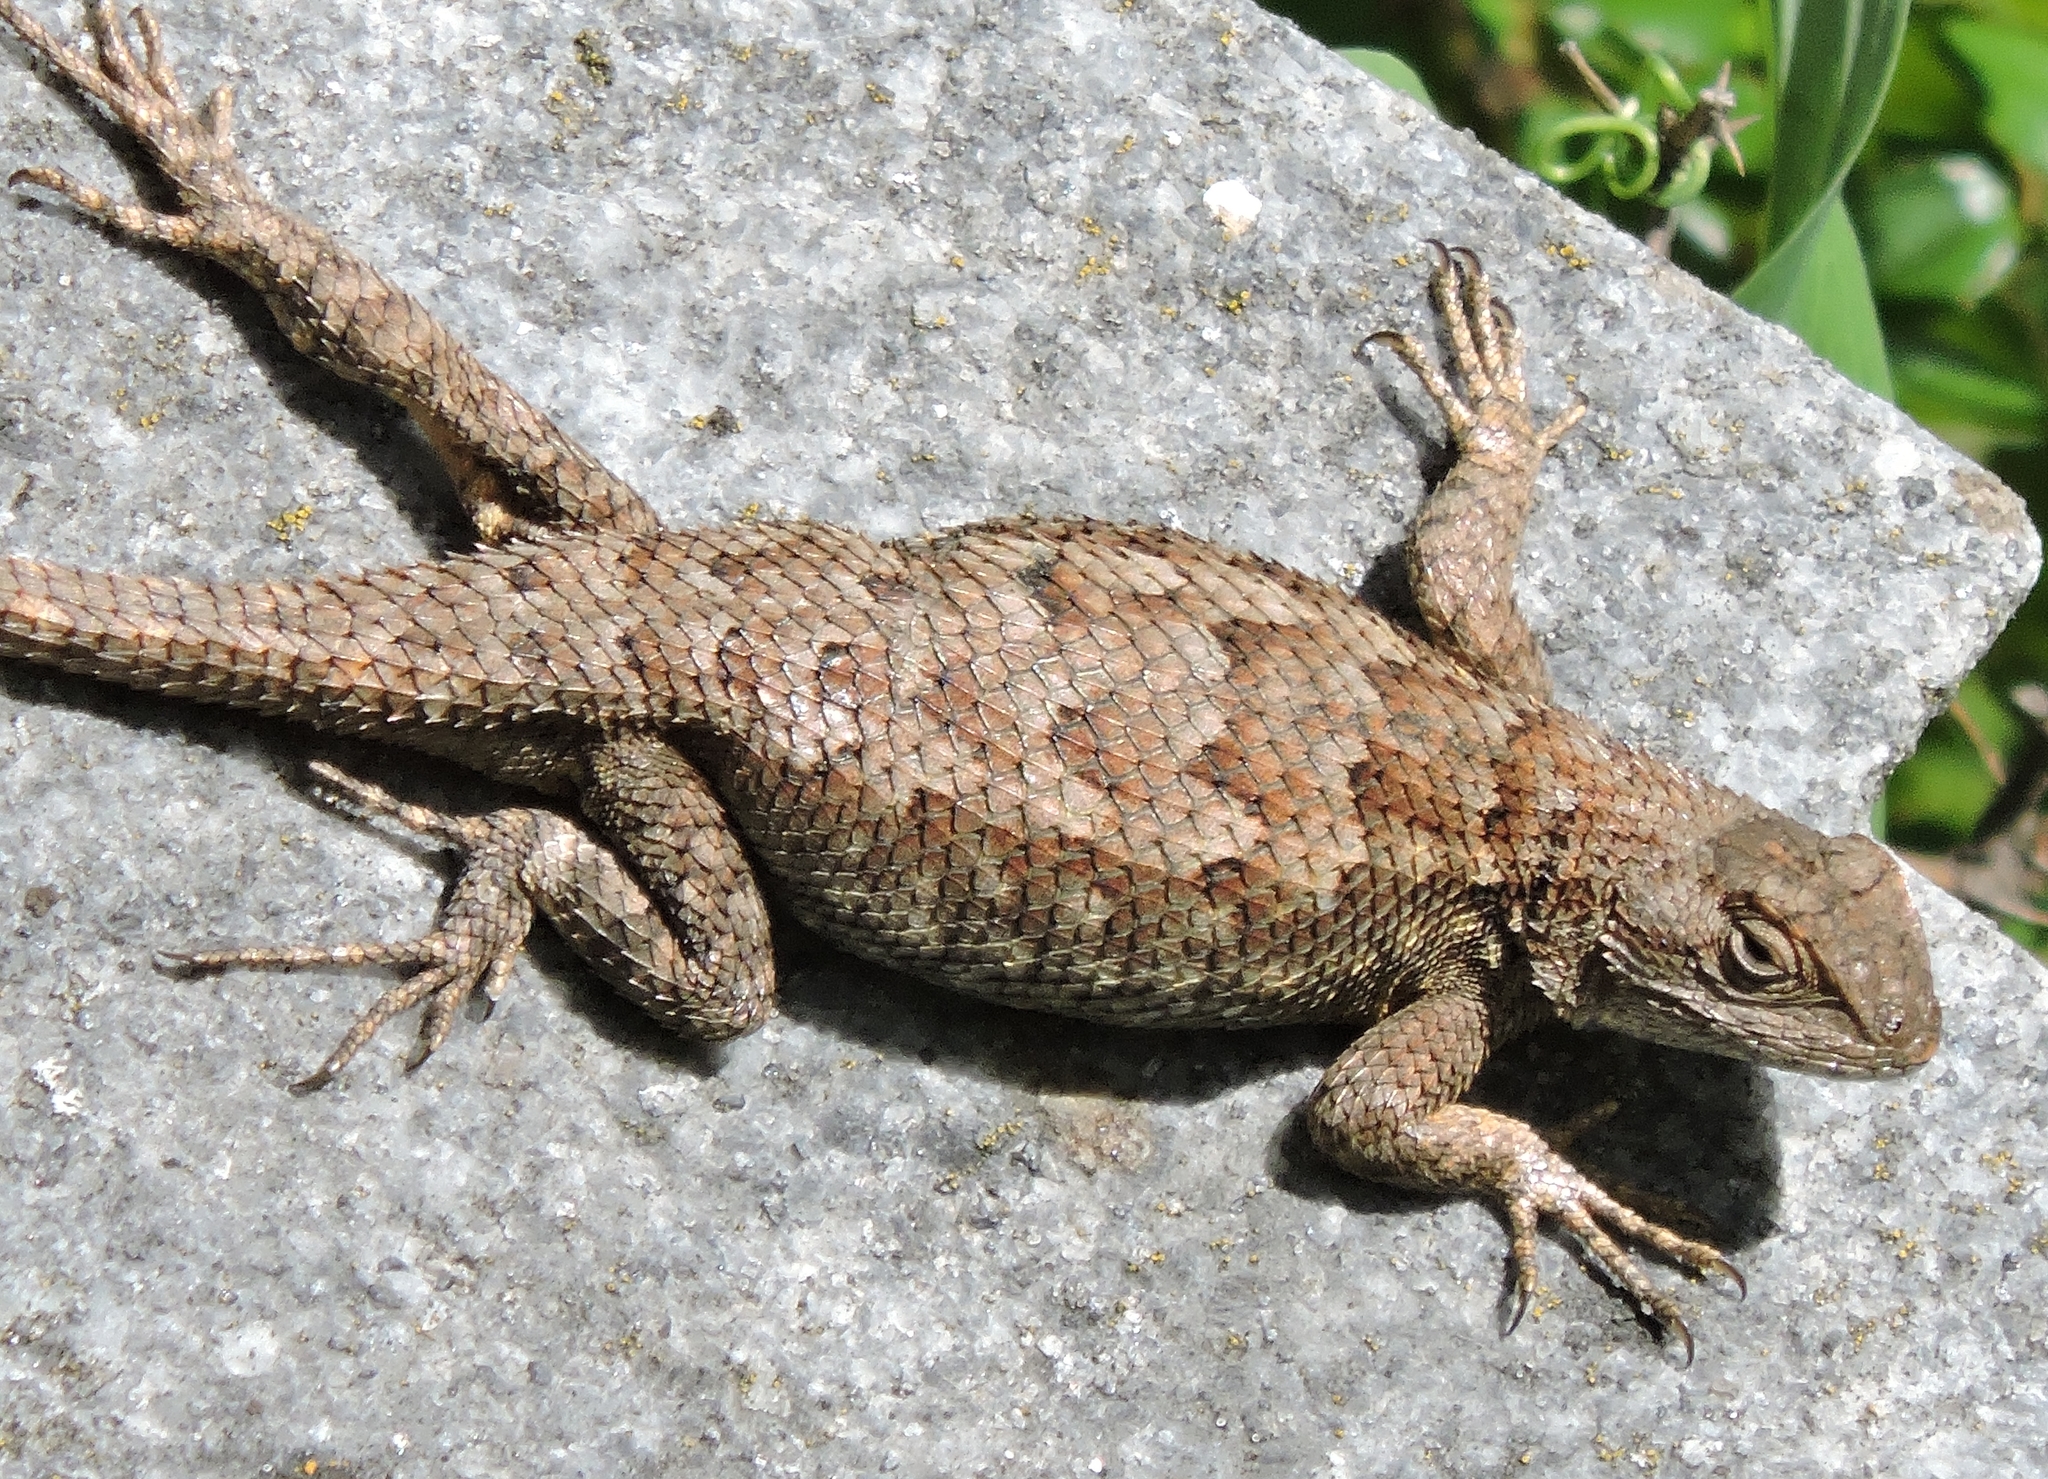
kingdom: Animalia
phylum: Chordata
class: Squamata
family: Phrynosomatidae
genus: Sceloporus
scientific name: Sceloporus occidentalis
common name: Western fence lizard
